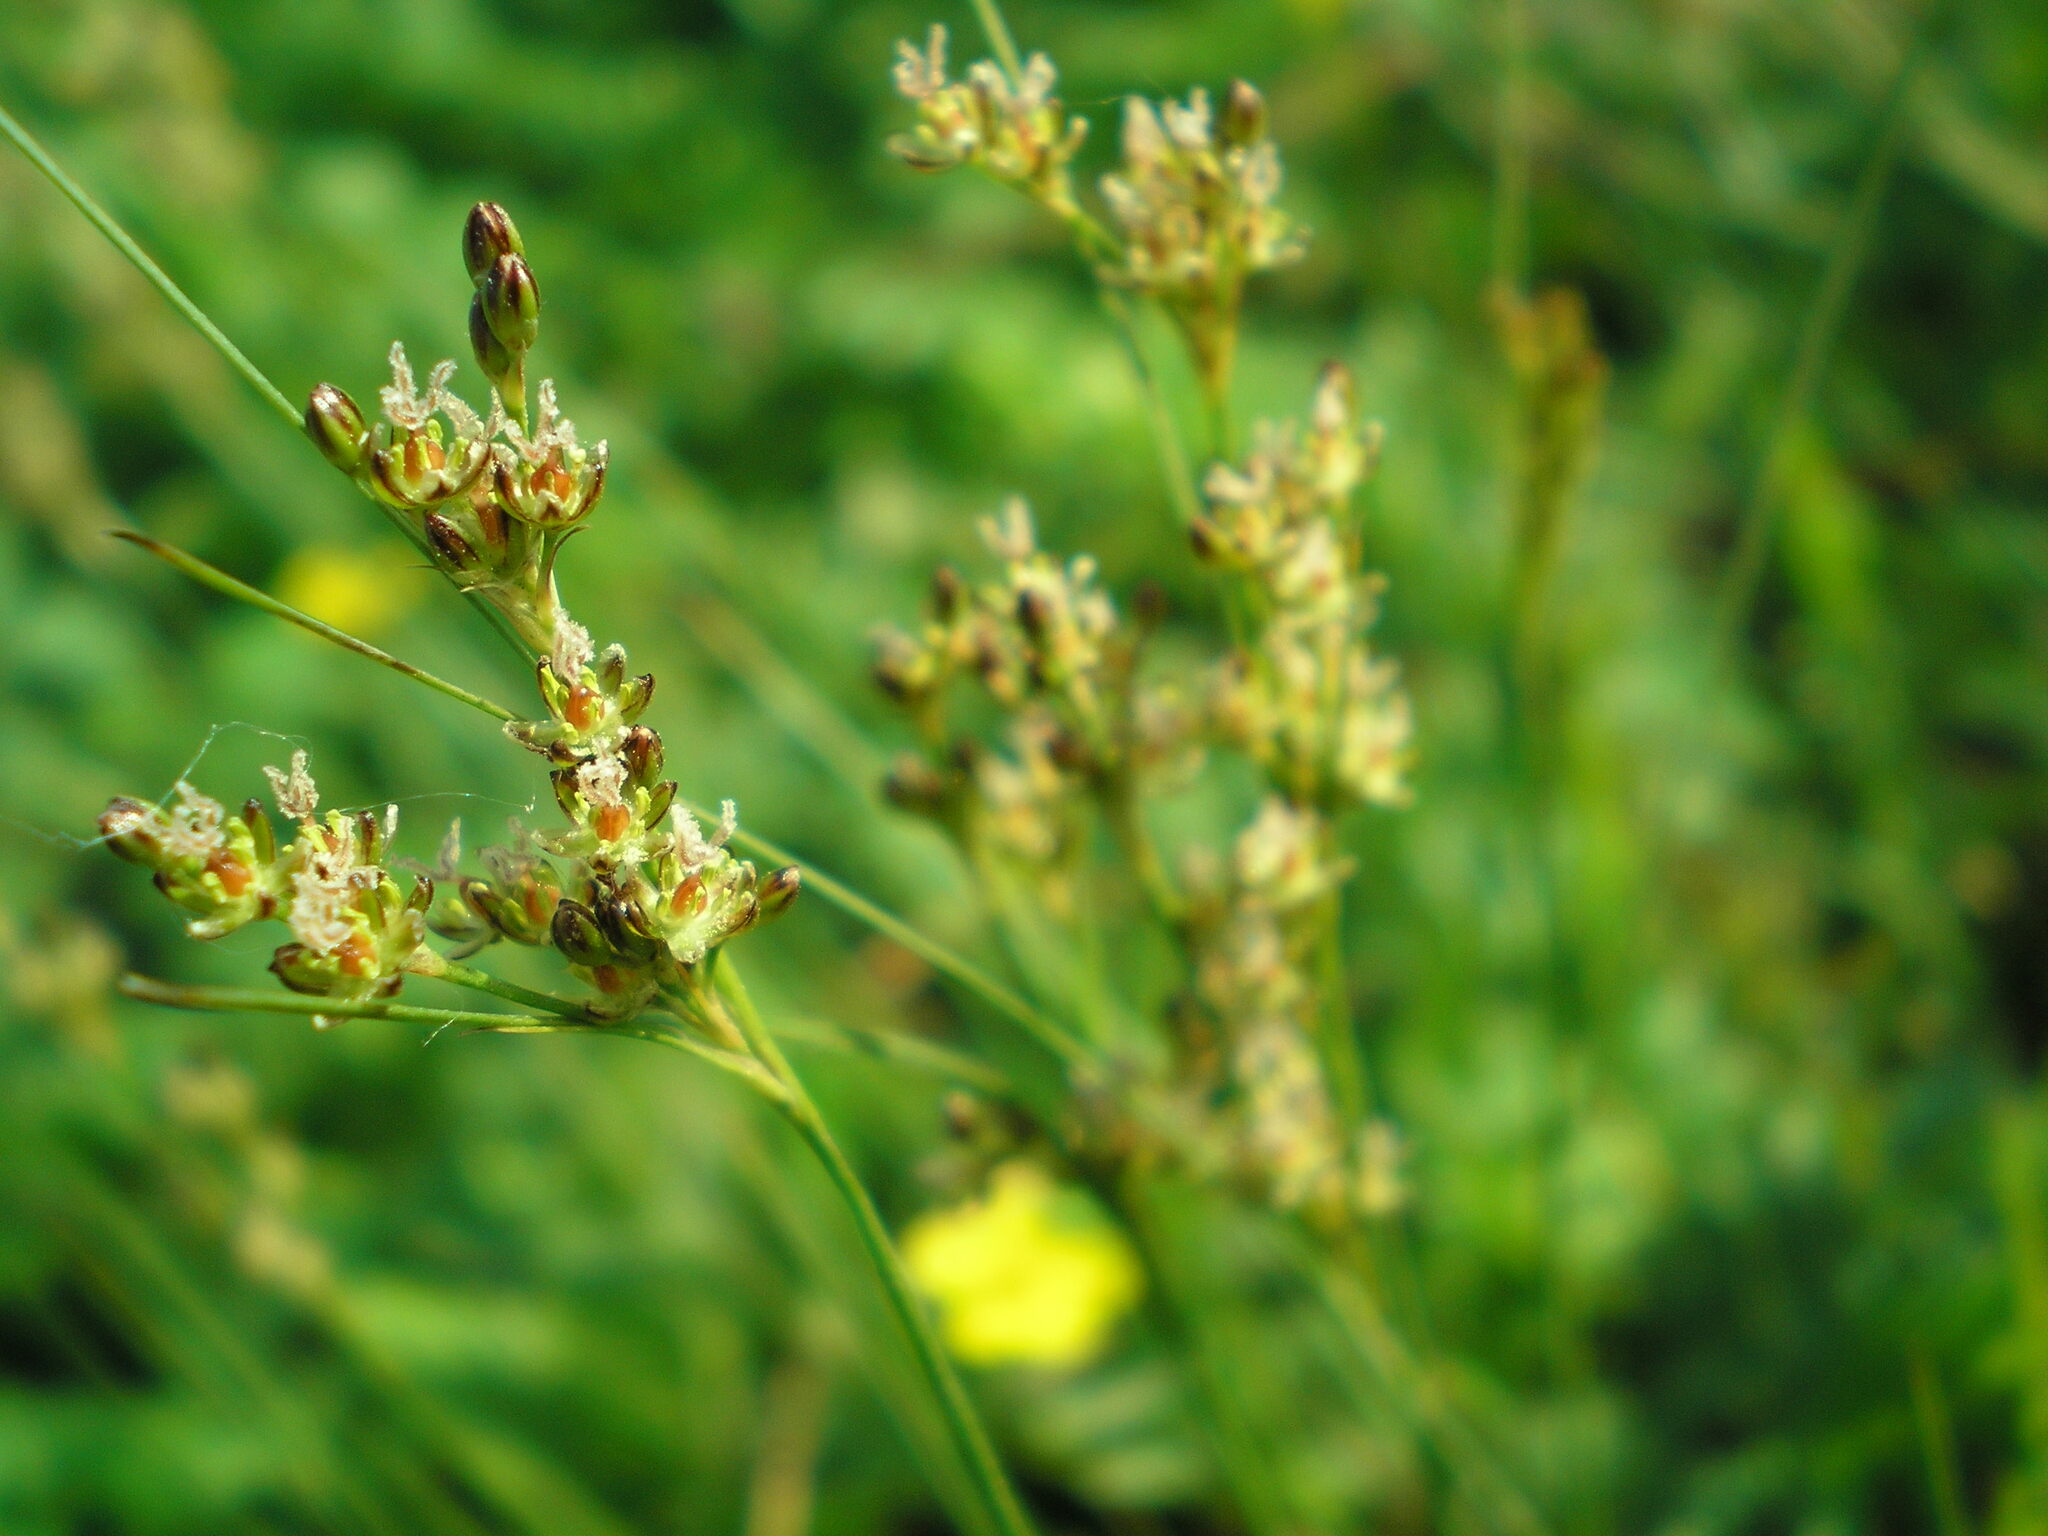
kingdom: Plantae
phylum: Tracheophyta
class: Liliopsida
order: Poales
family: Juncaceae
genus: Juncus
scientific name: Juncus compressus
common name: Round-fruited rush
